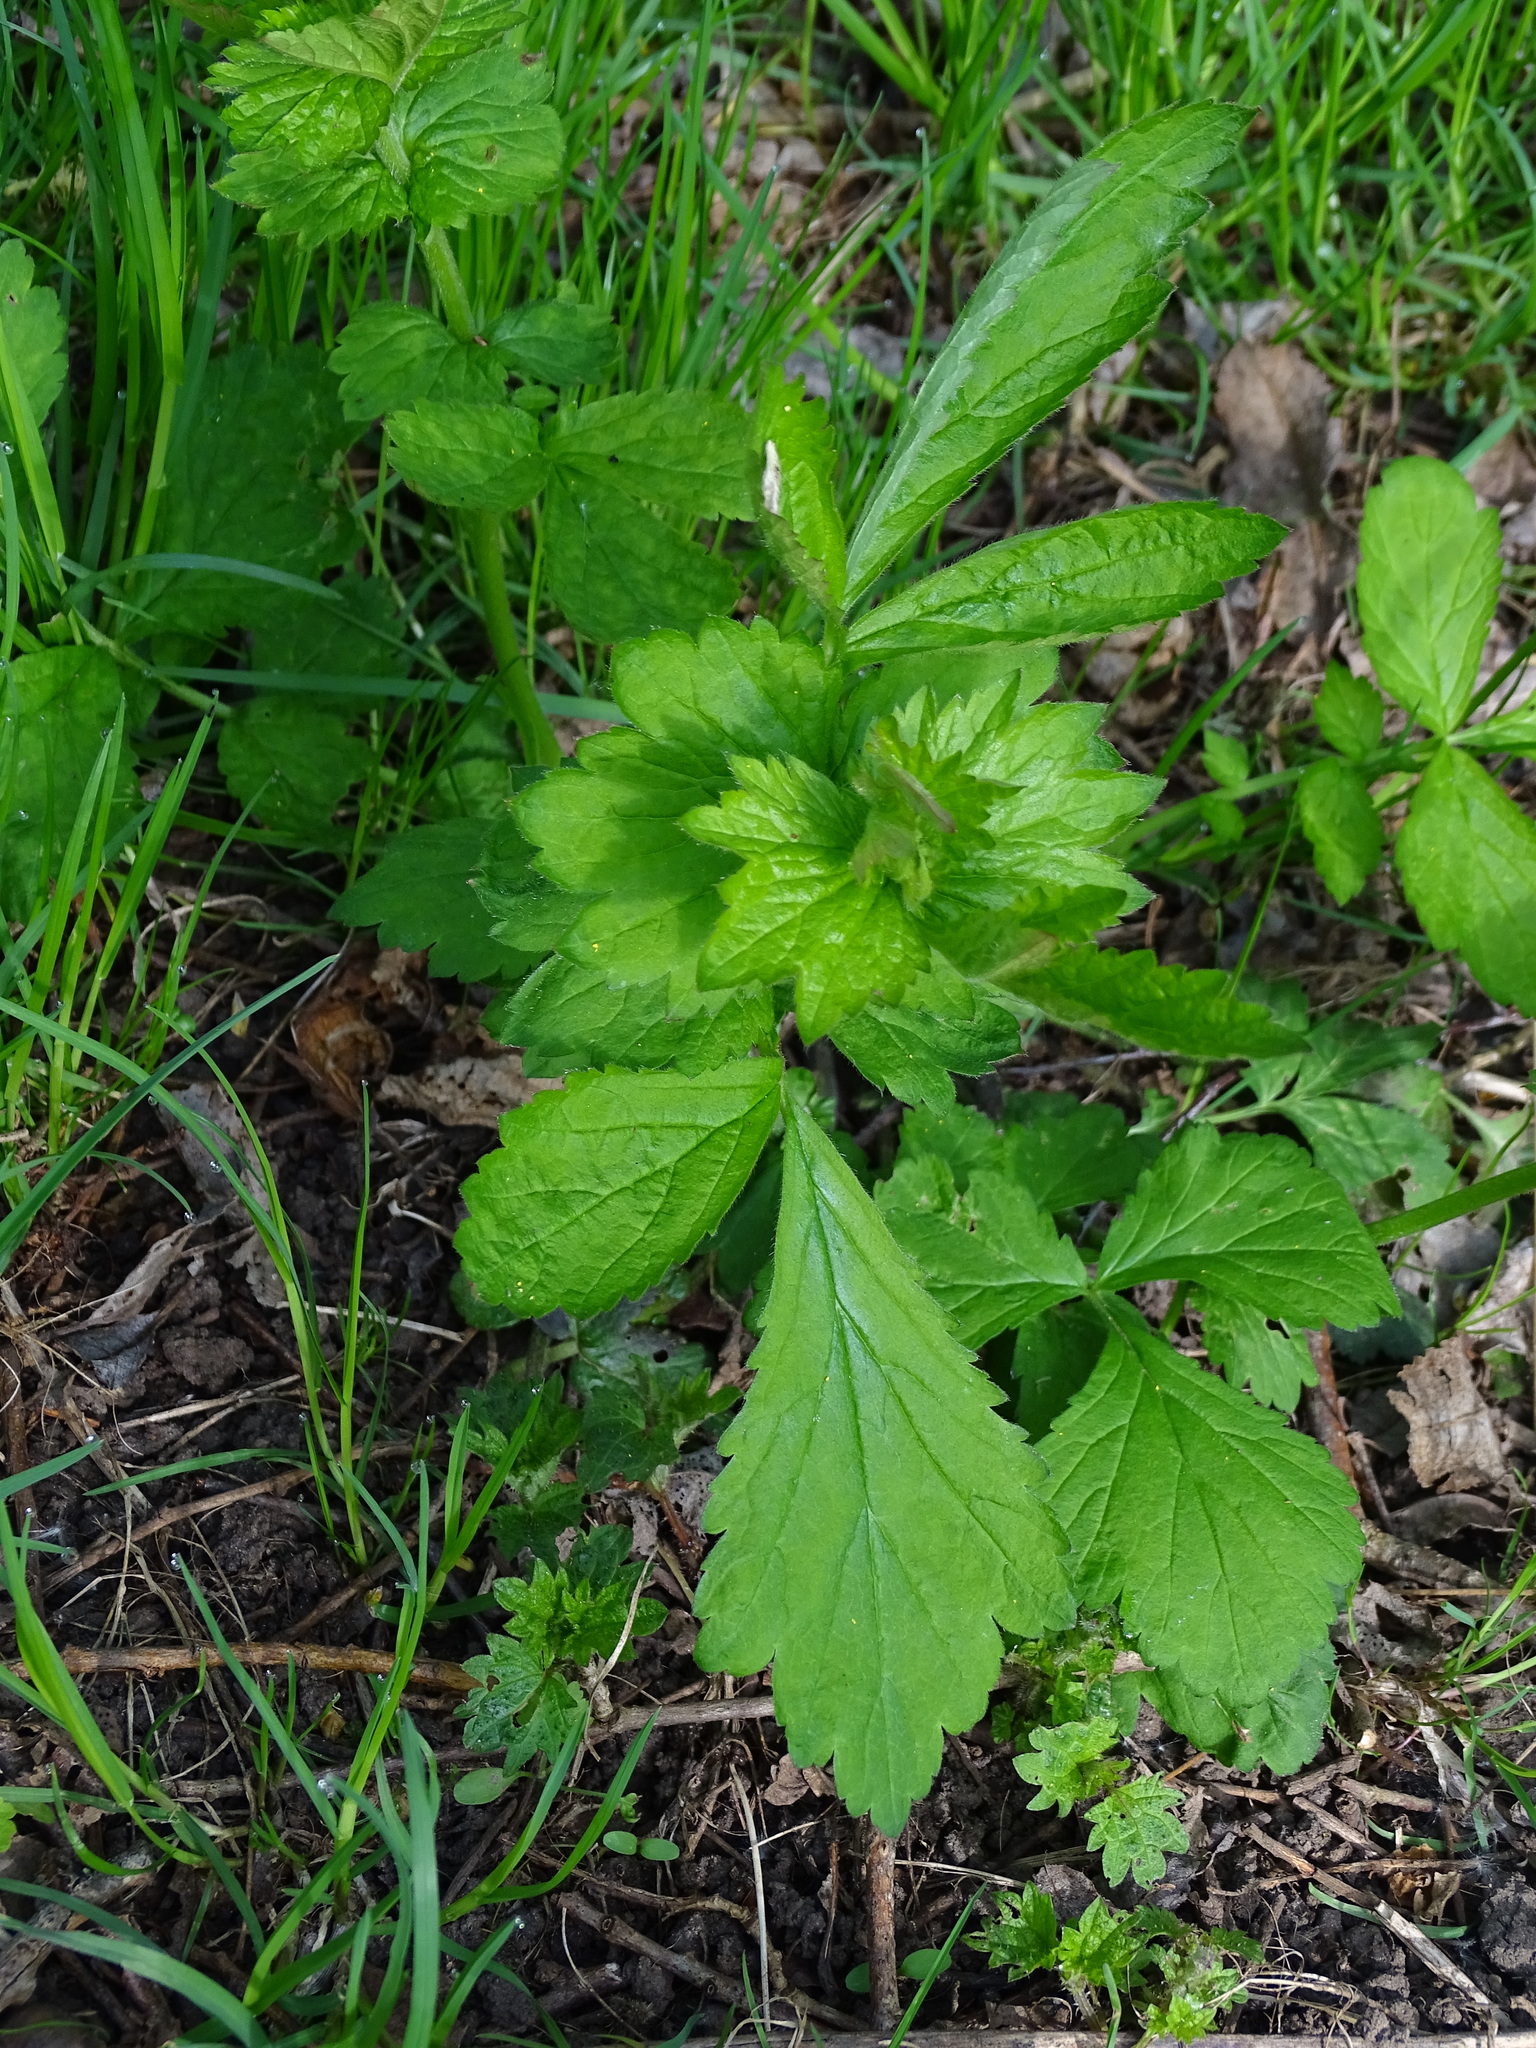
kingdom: Plantae
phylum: Tracheophyta
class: Magnoliopsida
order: Rosales
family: Rosaceae
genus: Geum
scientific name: Geum urbanum
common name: Wood avens
